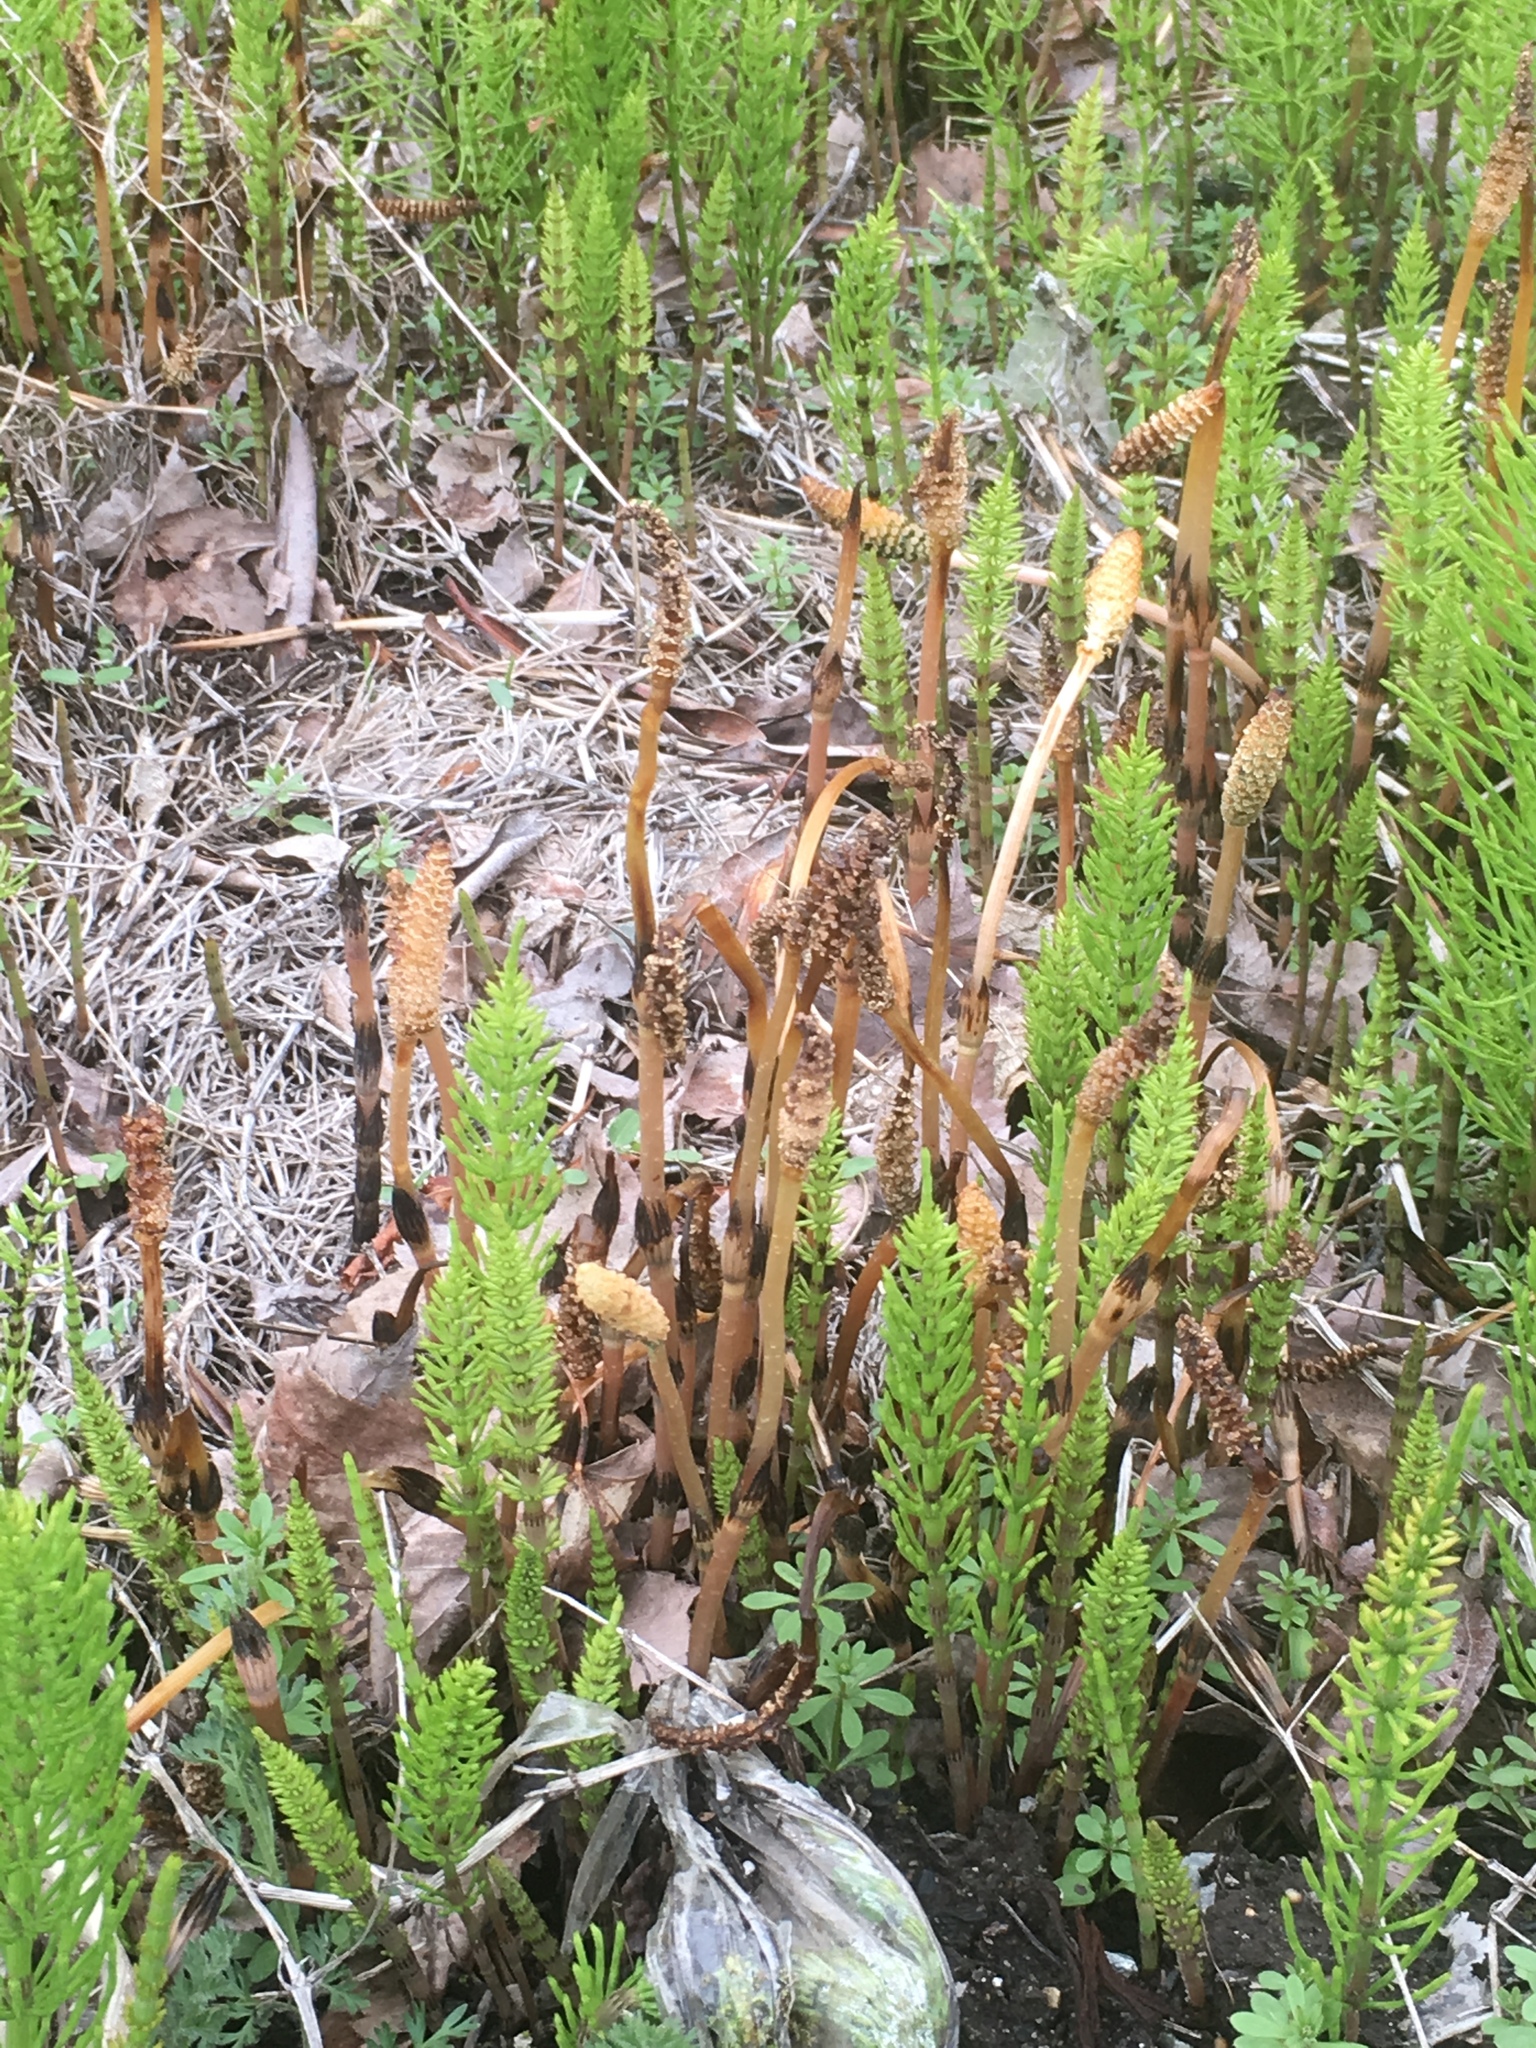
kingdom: Plantae
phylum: Tracheophyta
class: Polypodiopsida
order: Equisetales
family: Equisetaceae
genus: Equisetum
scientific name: Equisetum arvense
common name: Field horsetail
